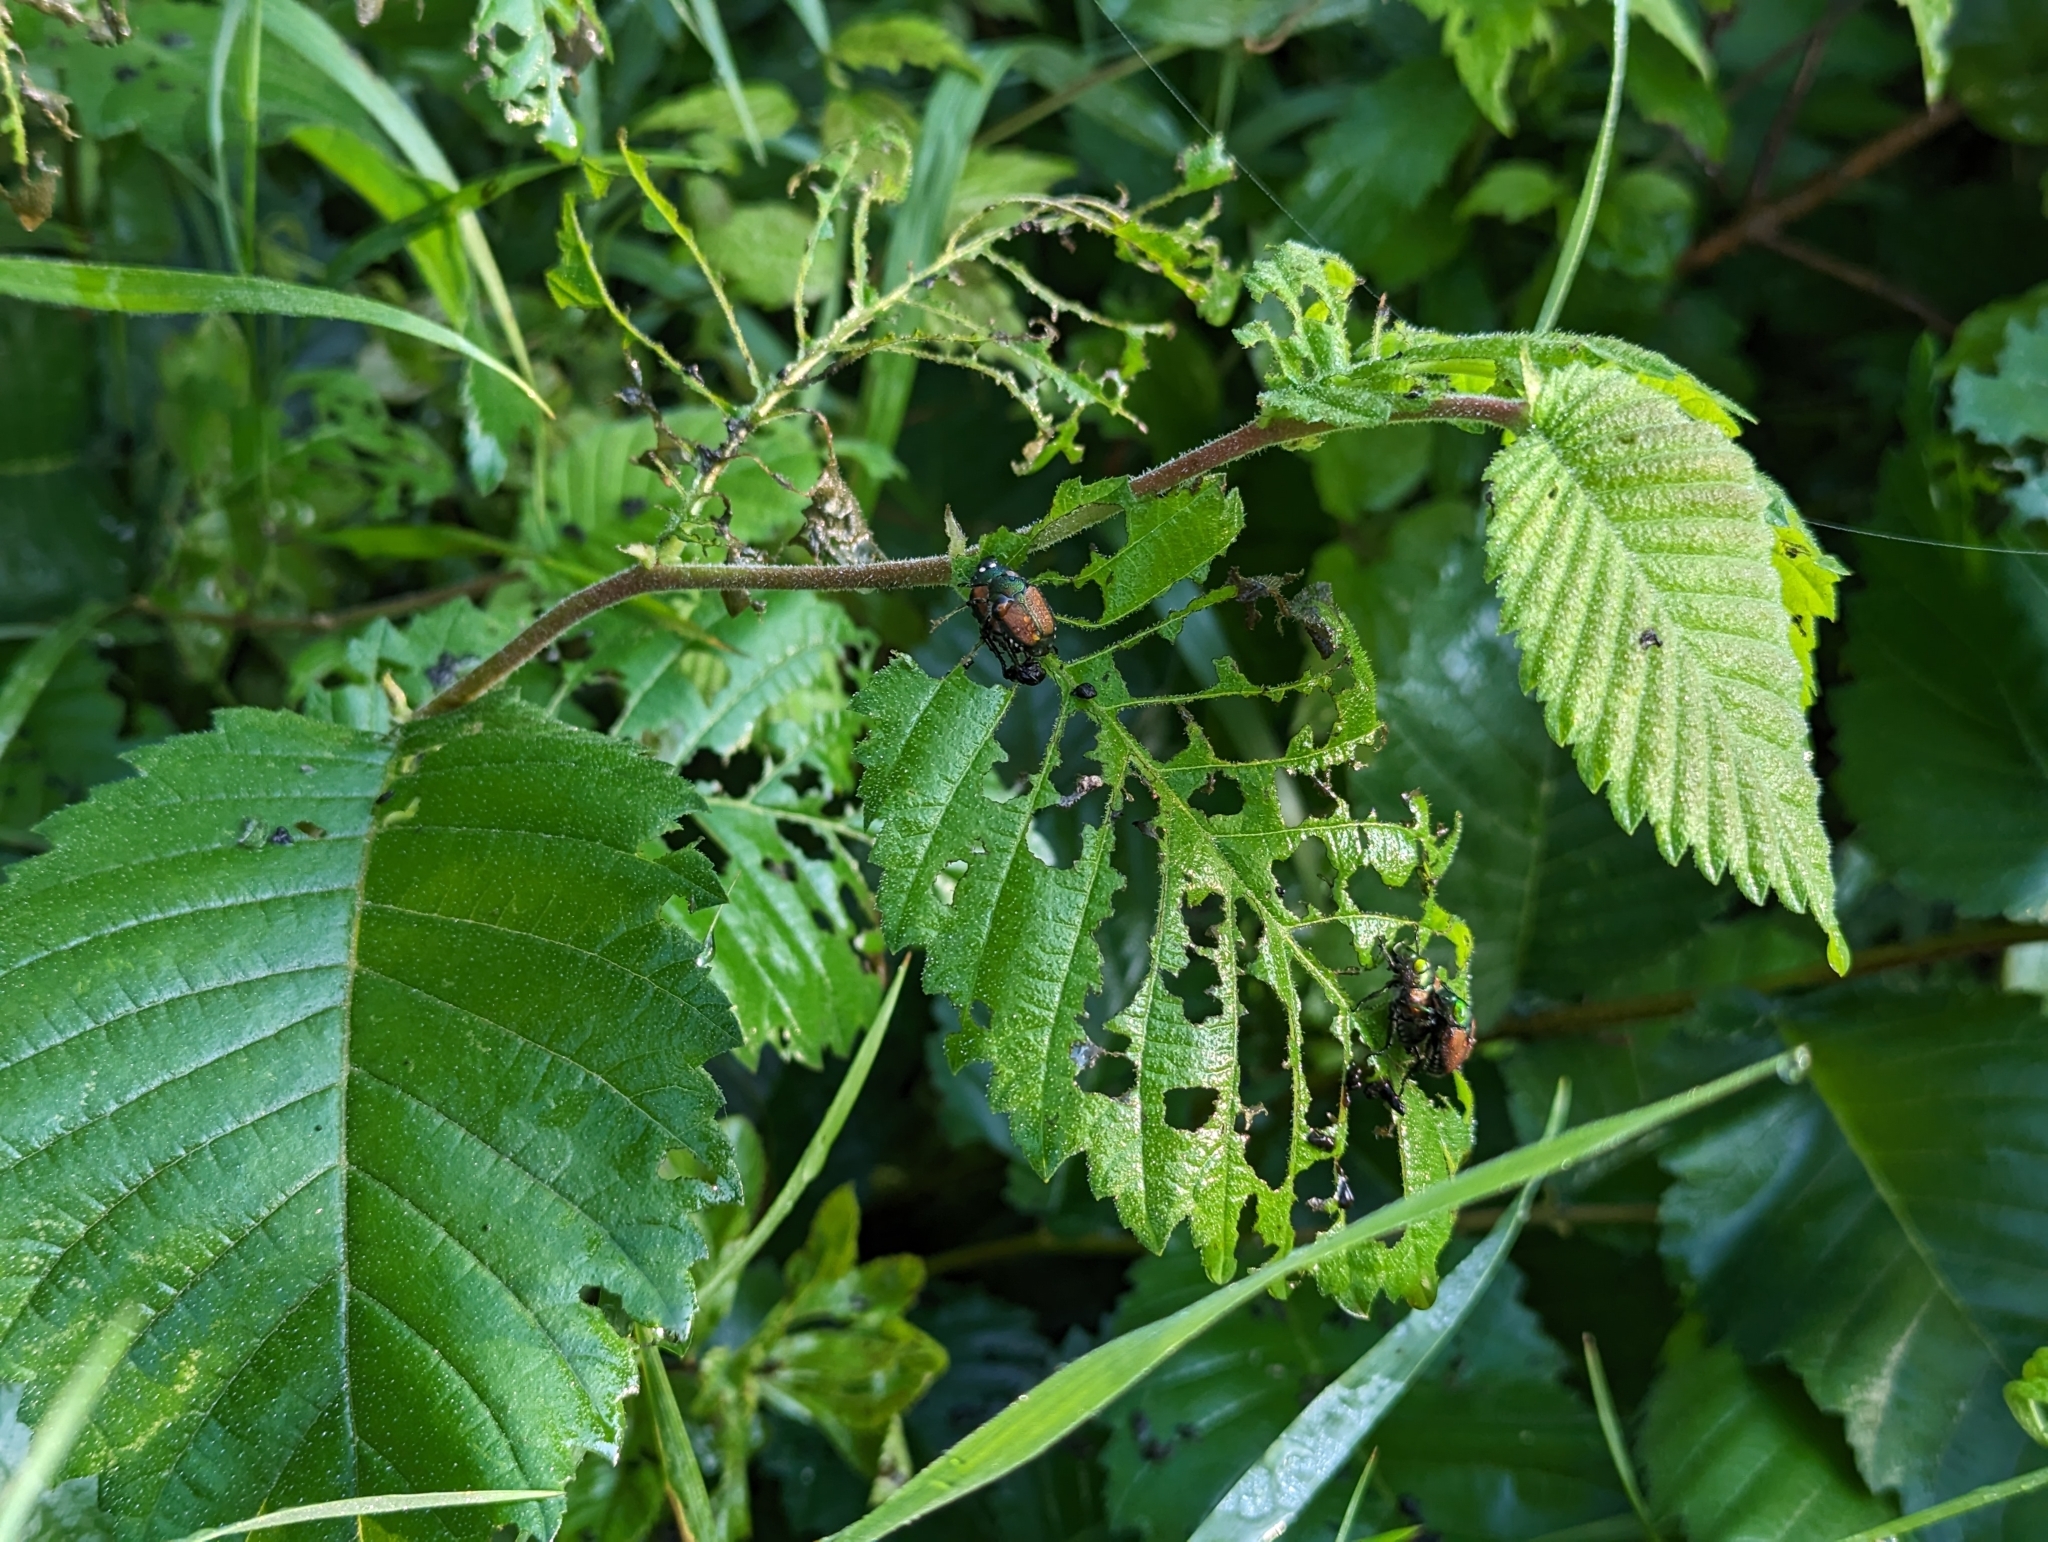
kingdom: Animalia
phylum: Arthropoda
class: Insecta
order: Coleoptera
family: Scarabaeidae
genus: Popillia
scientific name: Popillia japonica
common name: Japanese beetle
